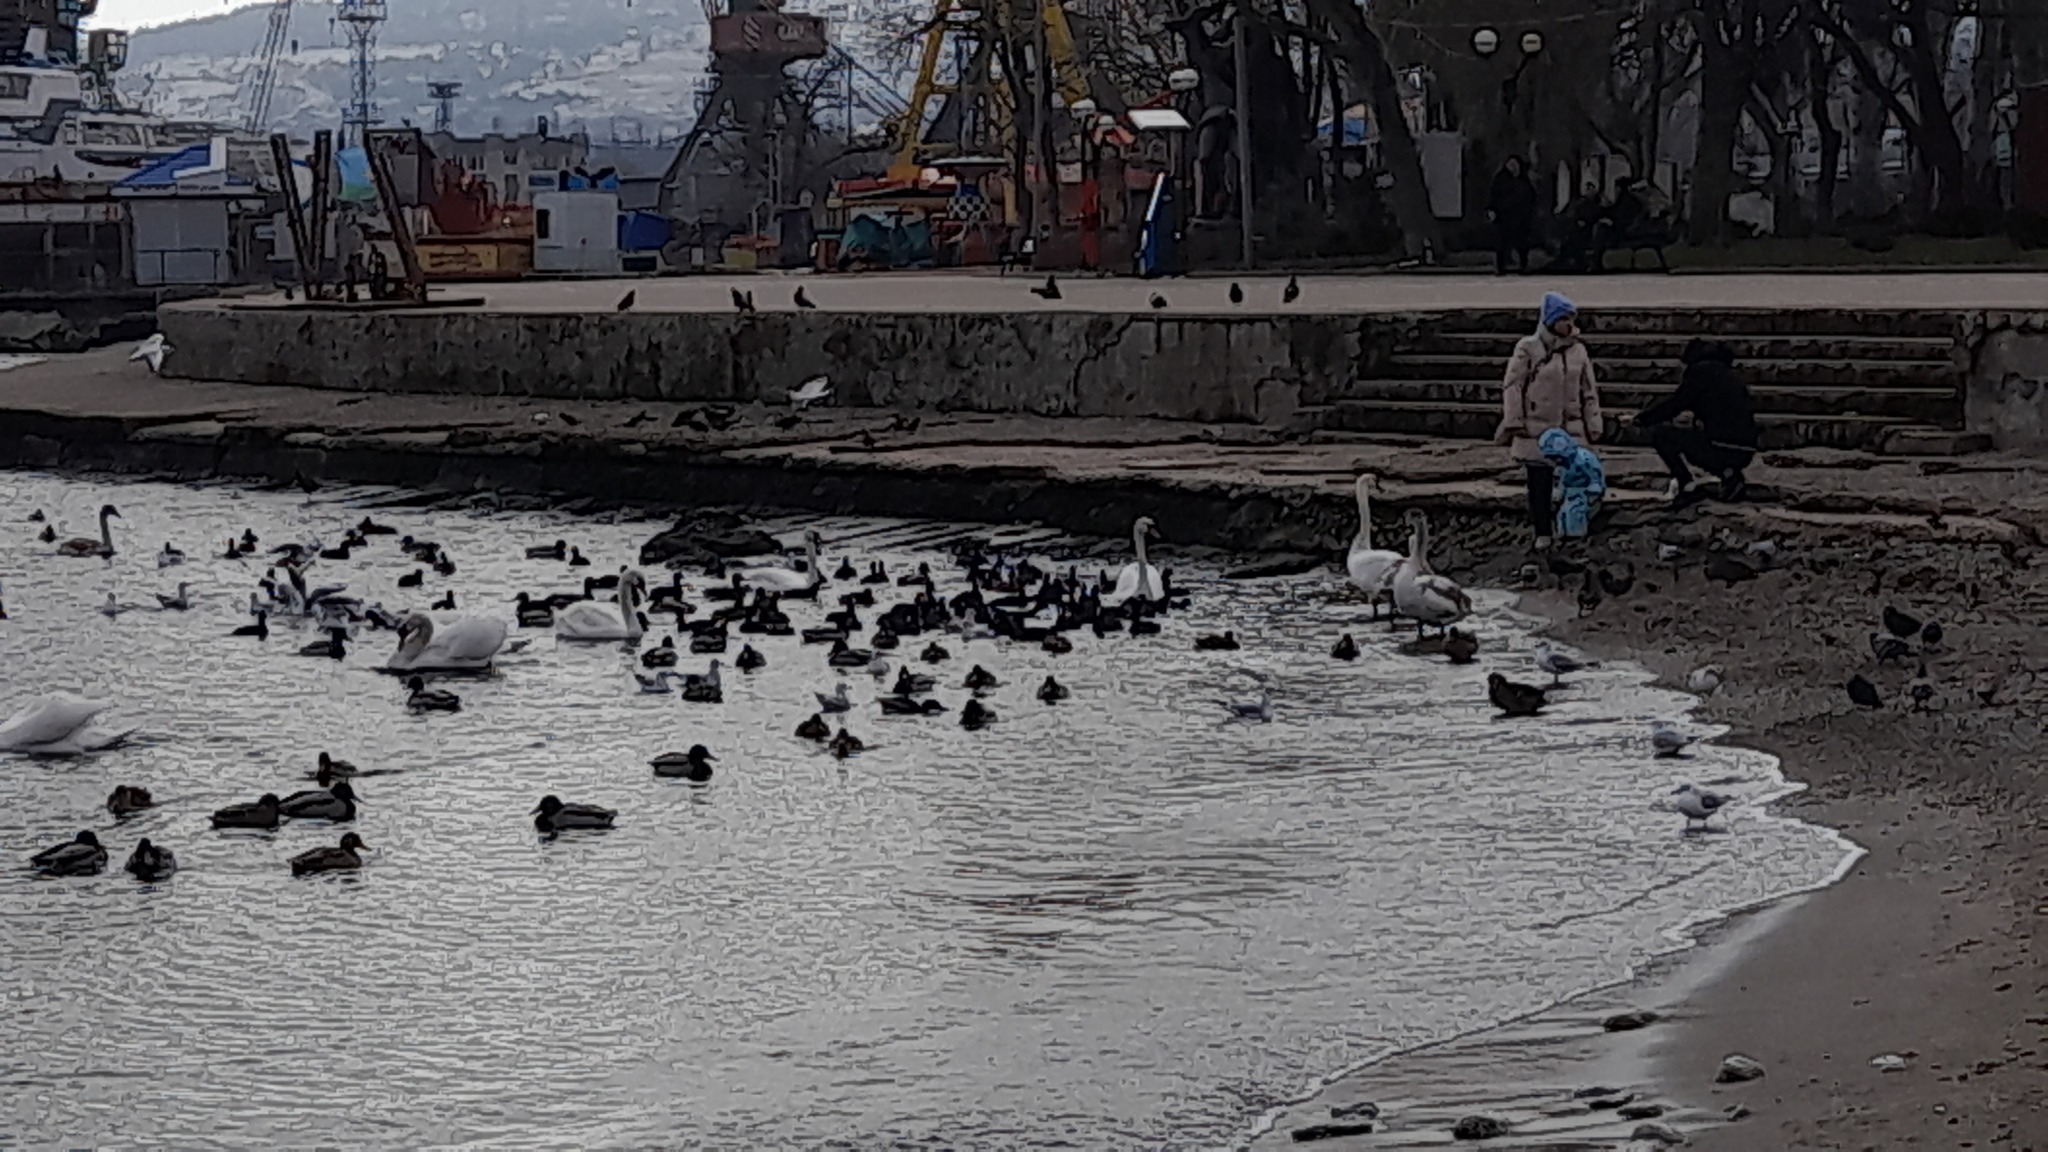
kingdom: Animalia
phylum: Chordata
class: Aves
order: Anseriformes
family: Anatidae
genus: Anas
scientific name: Anas platyrhynchos
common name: Mallard
